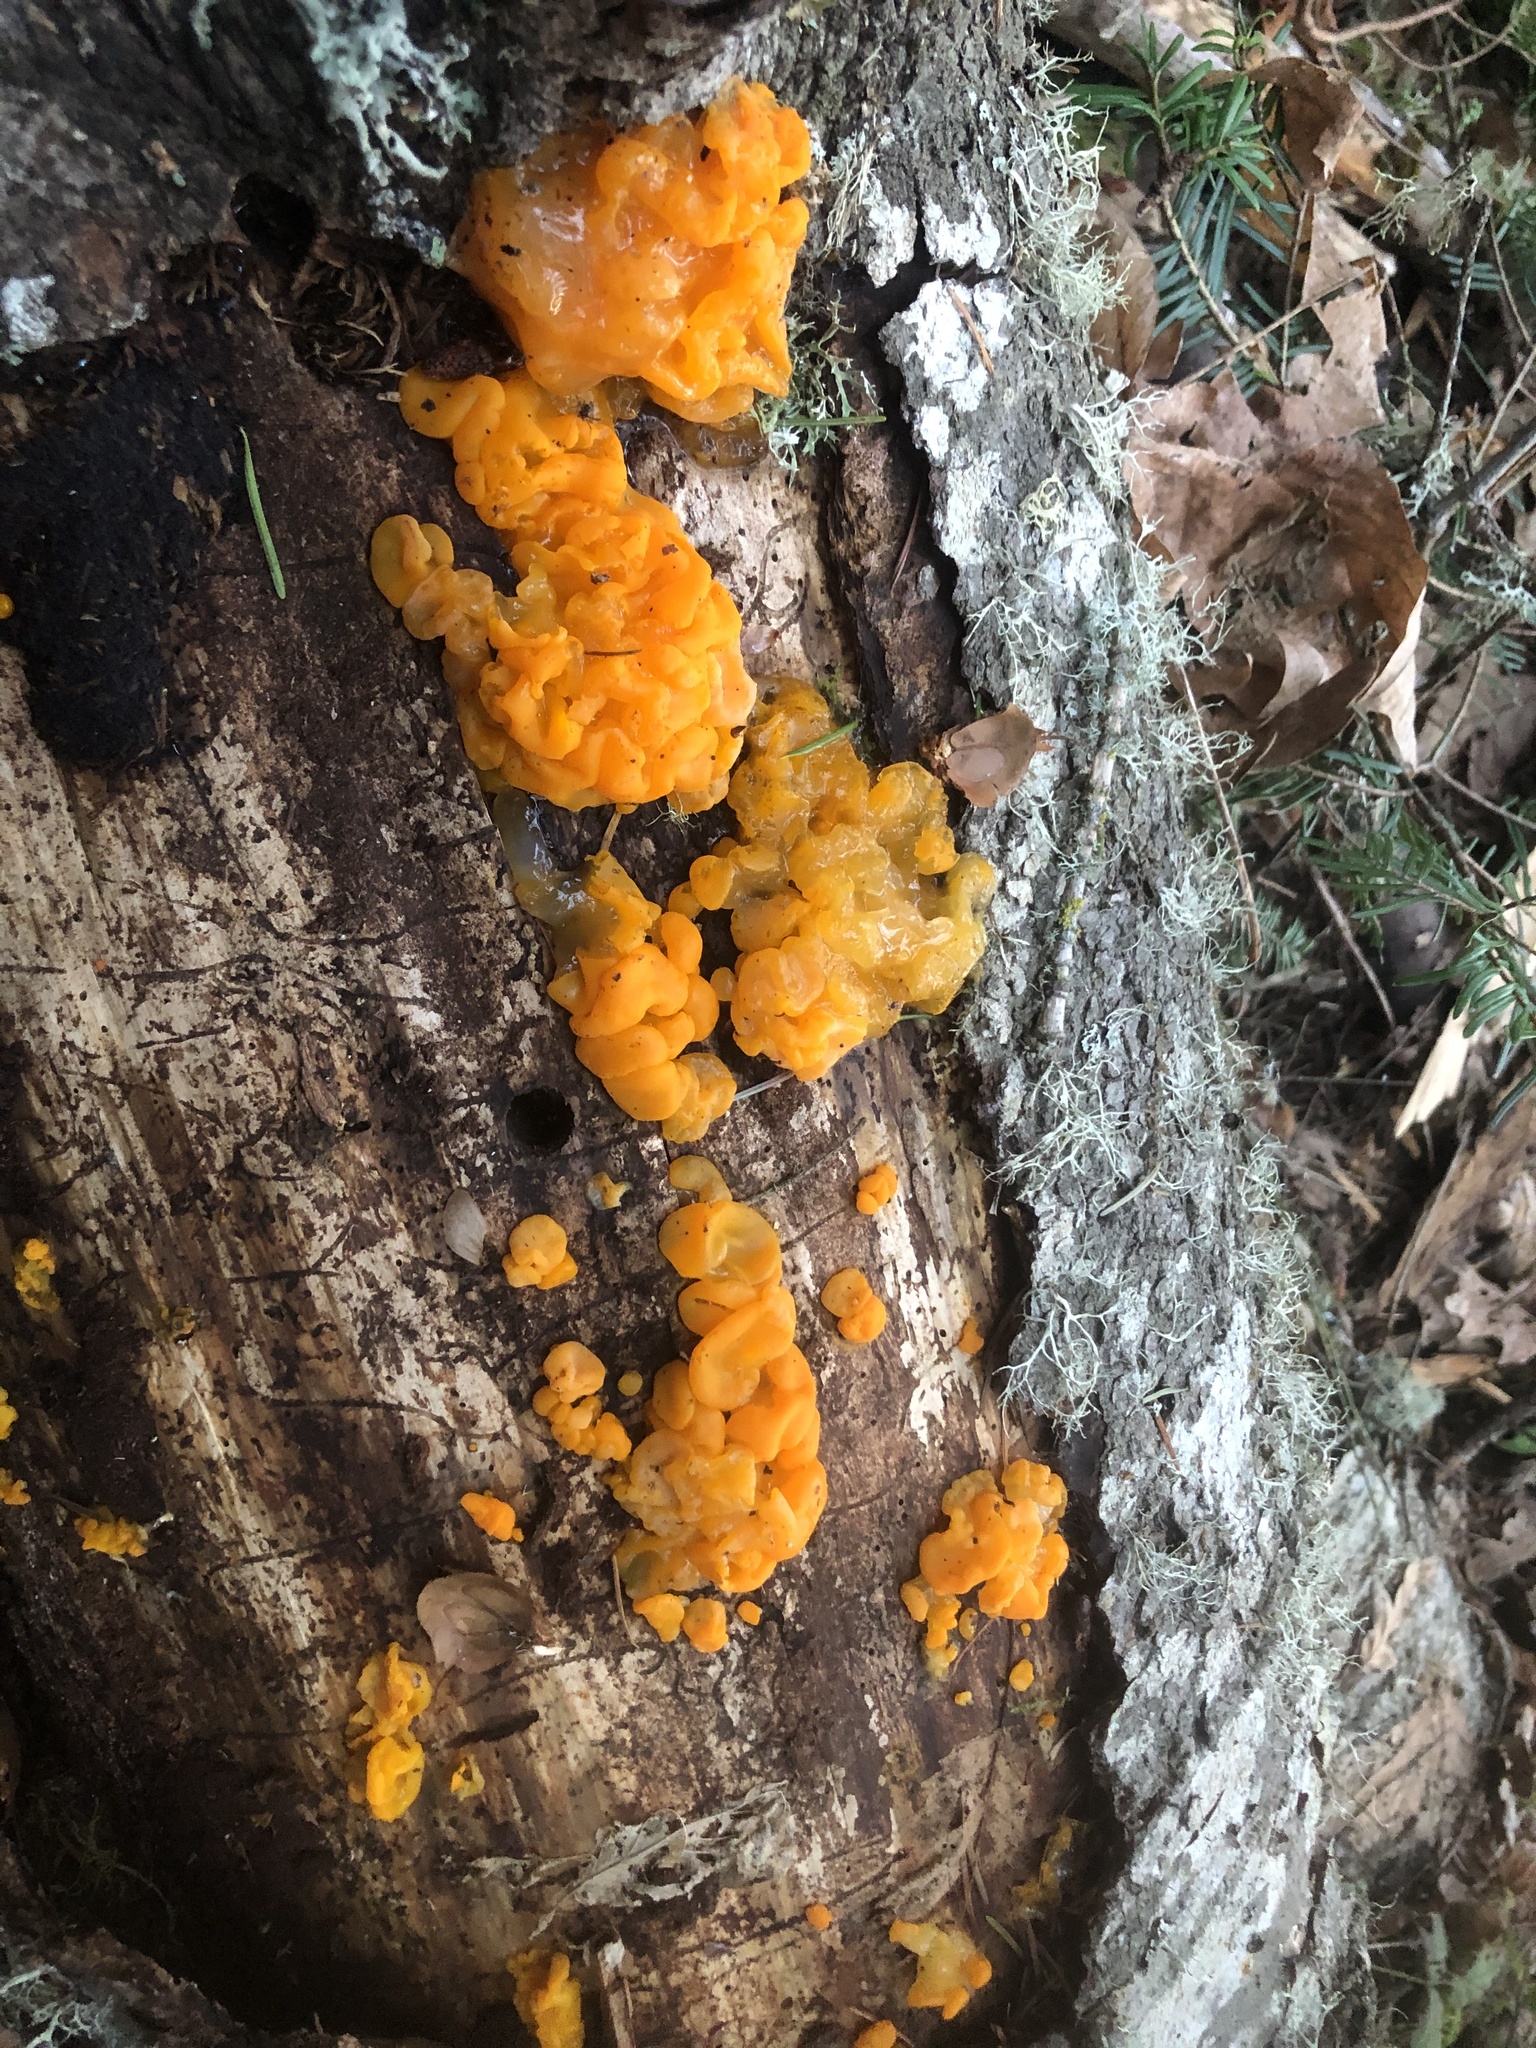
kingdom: Fungi
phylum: Basidiomycota
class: Dacrymycetes
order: Dacrymycetales
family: Dacrymycetaceae
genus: Dacrymyces
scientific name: Dacrymyces chrysospermus
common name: Orange jelly spot
